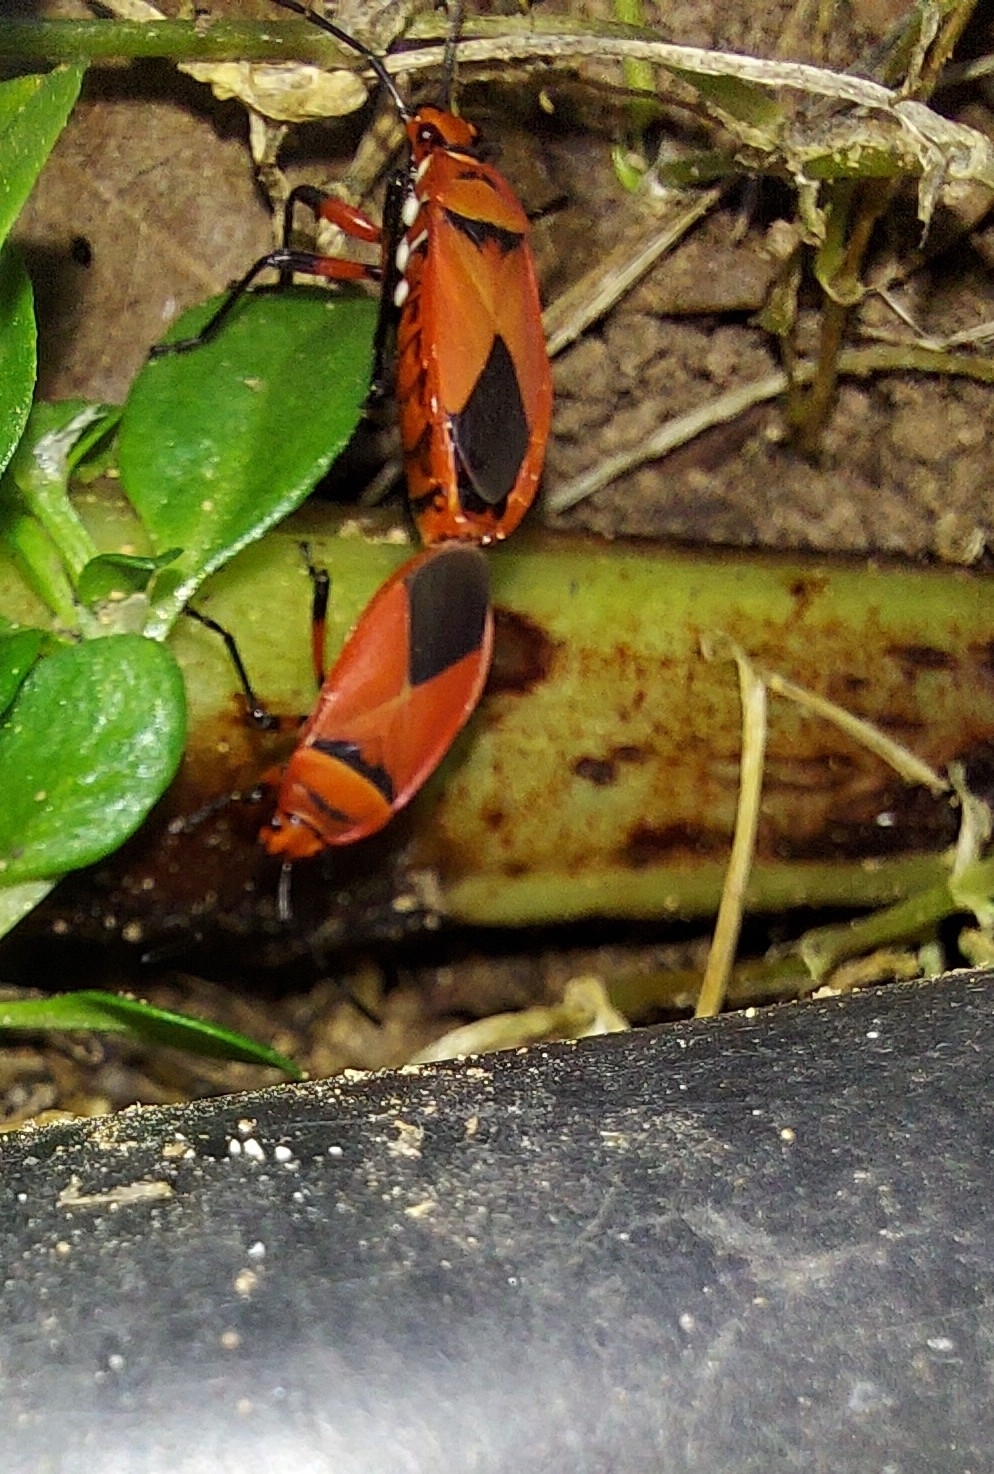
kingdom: Animalia
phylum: Arthropoda
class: Insecta
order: Hemiptera
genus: Cenaeus
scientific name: Cenaeus
